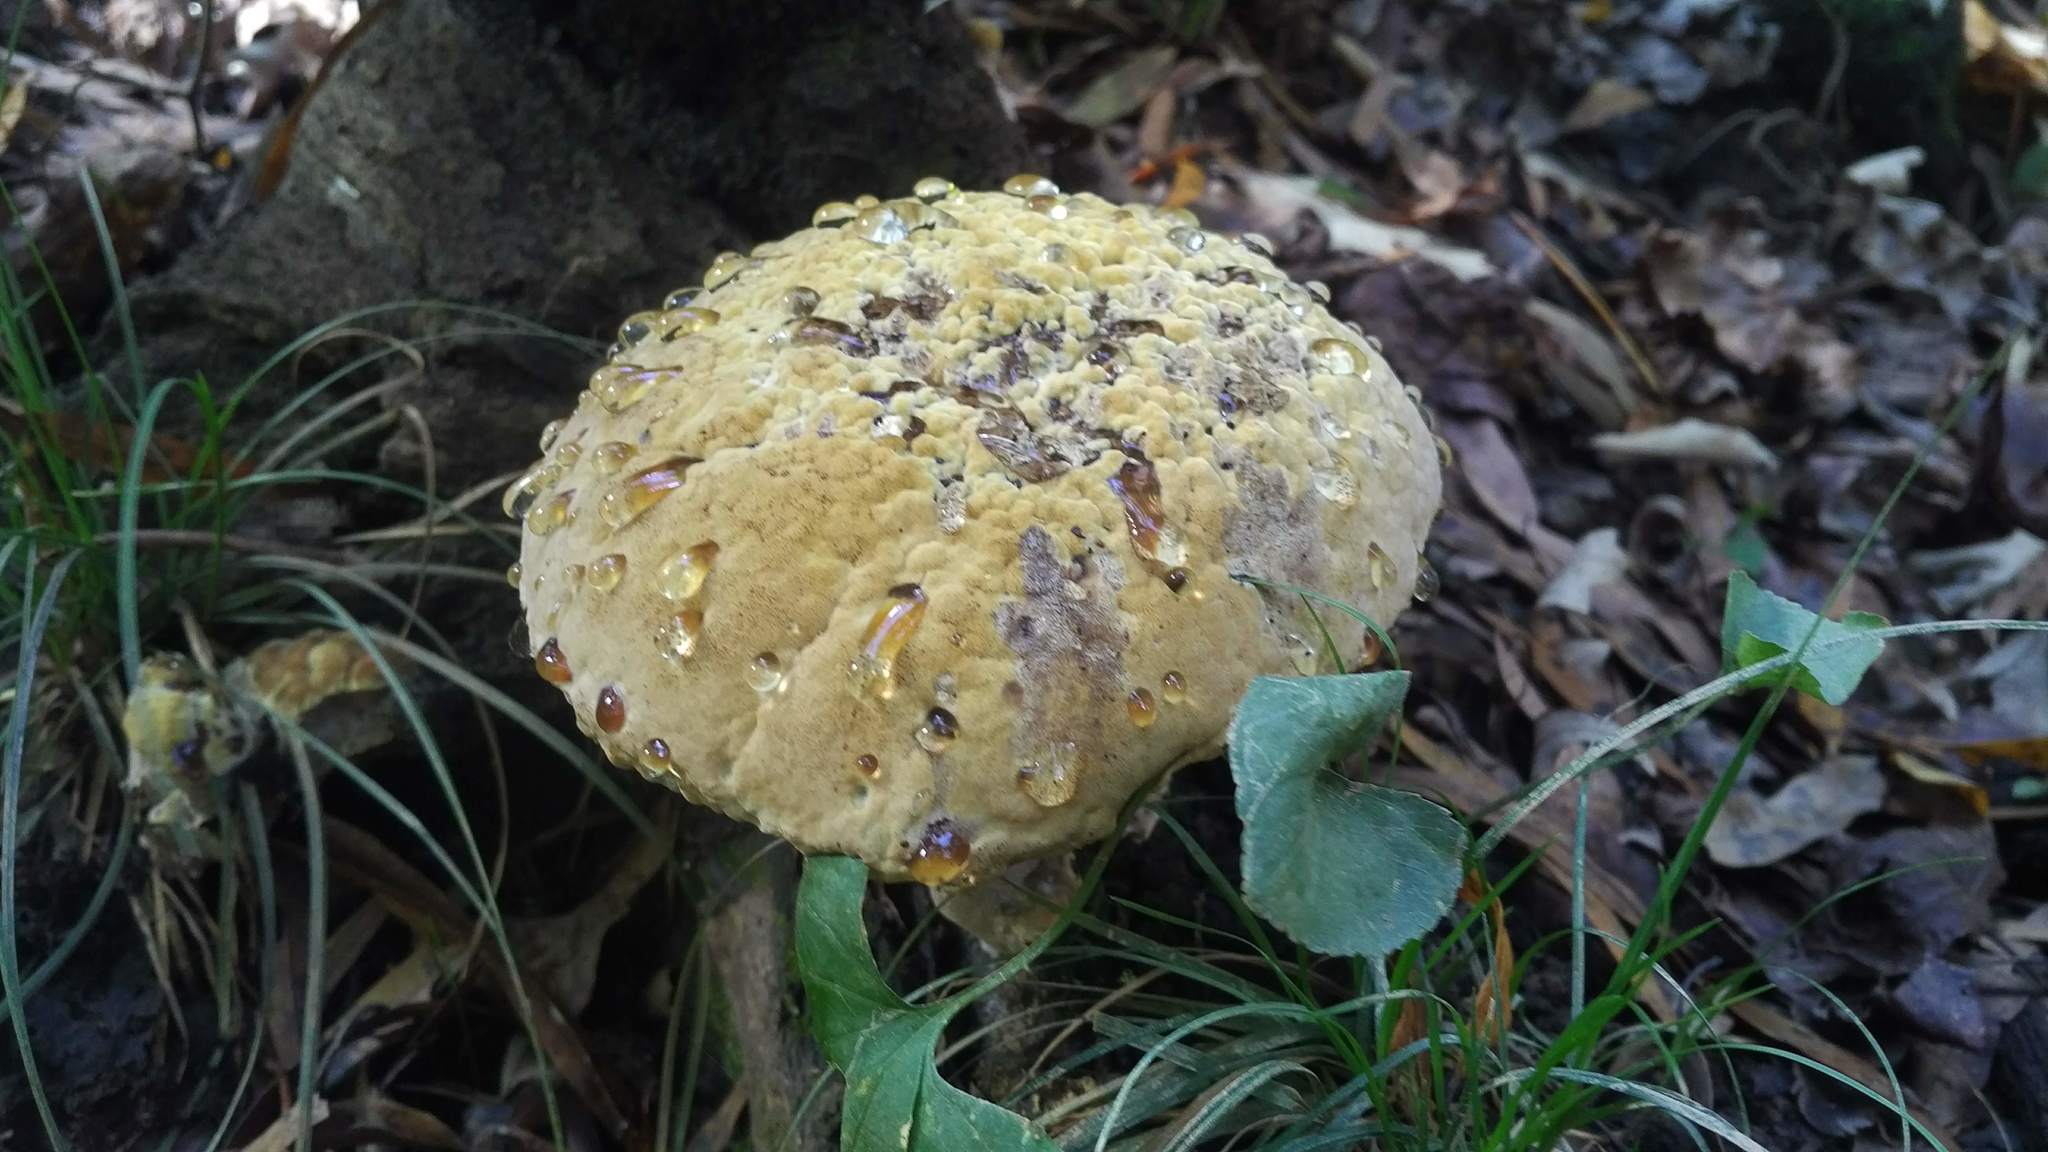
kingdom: Fungi
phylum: Basidiomycota
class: Agaricomycetes
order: Hymenochaetales
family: Hymenochaetaceae
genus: Pseudoinonotus
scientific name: Pseudoinonotus dryadeus
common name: Oak bracket
